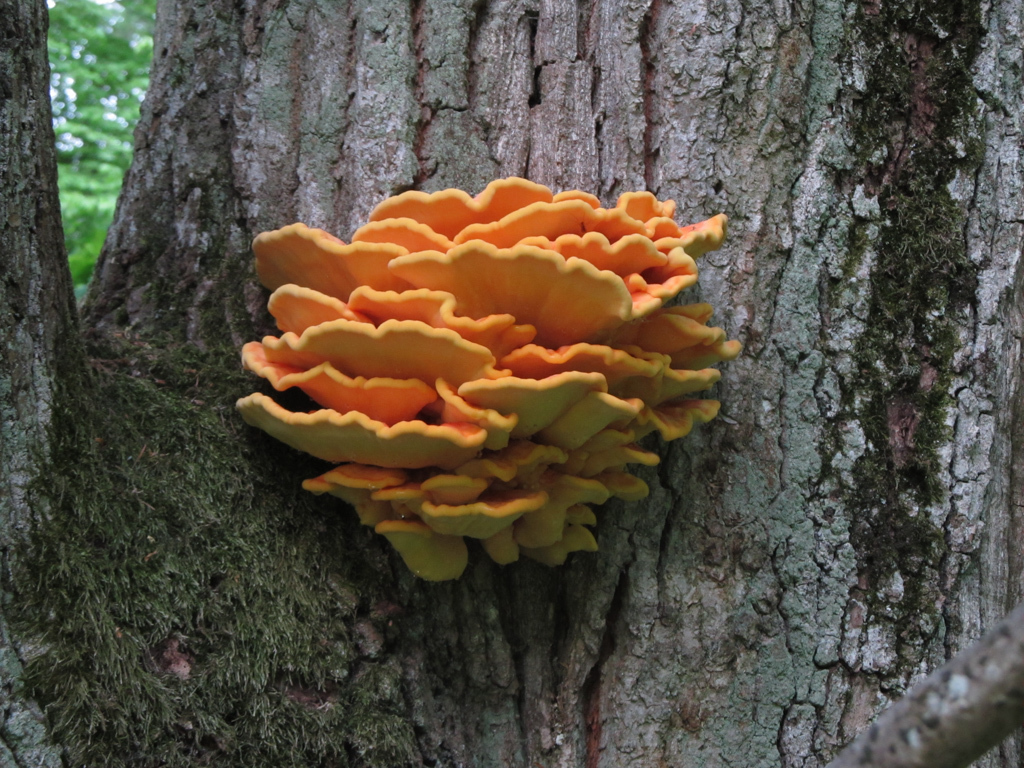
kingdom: Fungi
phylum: Basidiomycota
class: Agaricomycetes
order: Polyporales
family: Laetiporaceae
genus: Laetiporus
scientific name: Laetiporus sulphureus
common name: Chicken of the woods
